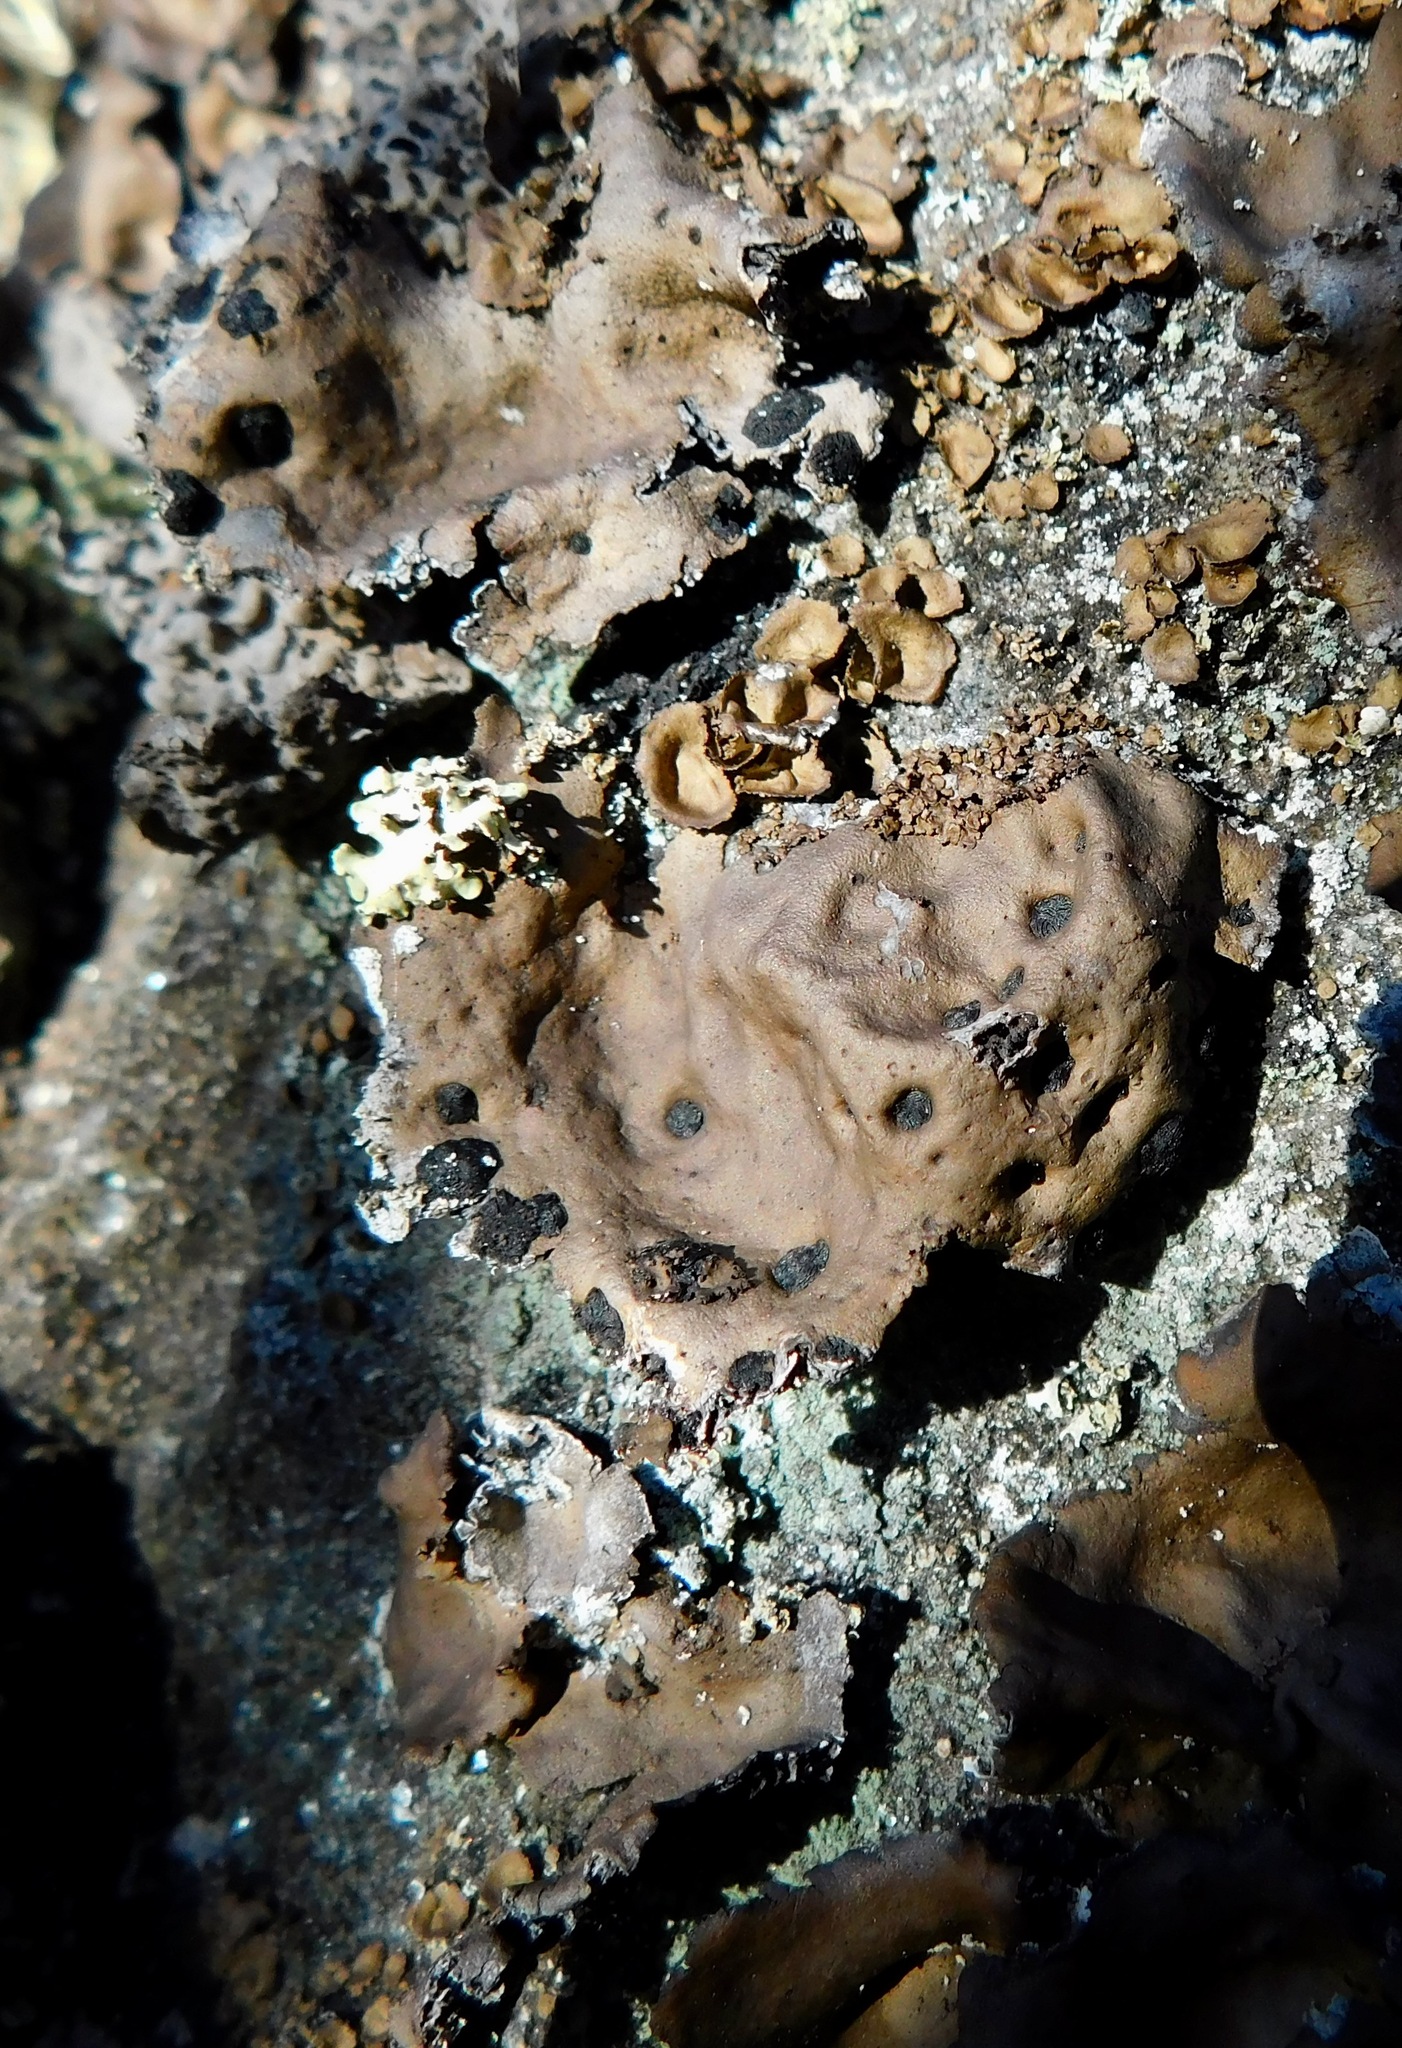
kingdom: Fungi
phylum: Ascomycota
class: Lecanoromycetes
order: Umbilicariales
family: Umbilicariaceae
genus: Umbilicaria
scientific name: Umbilicaria muhlenbergii
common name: Lesser rocktripe
